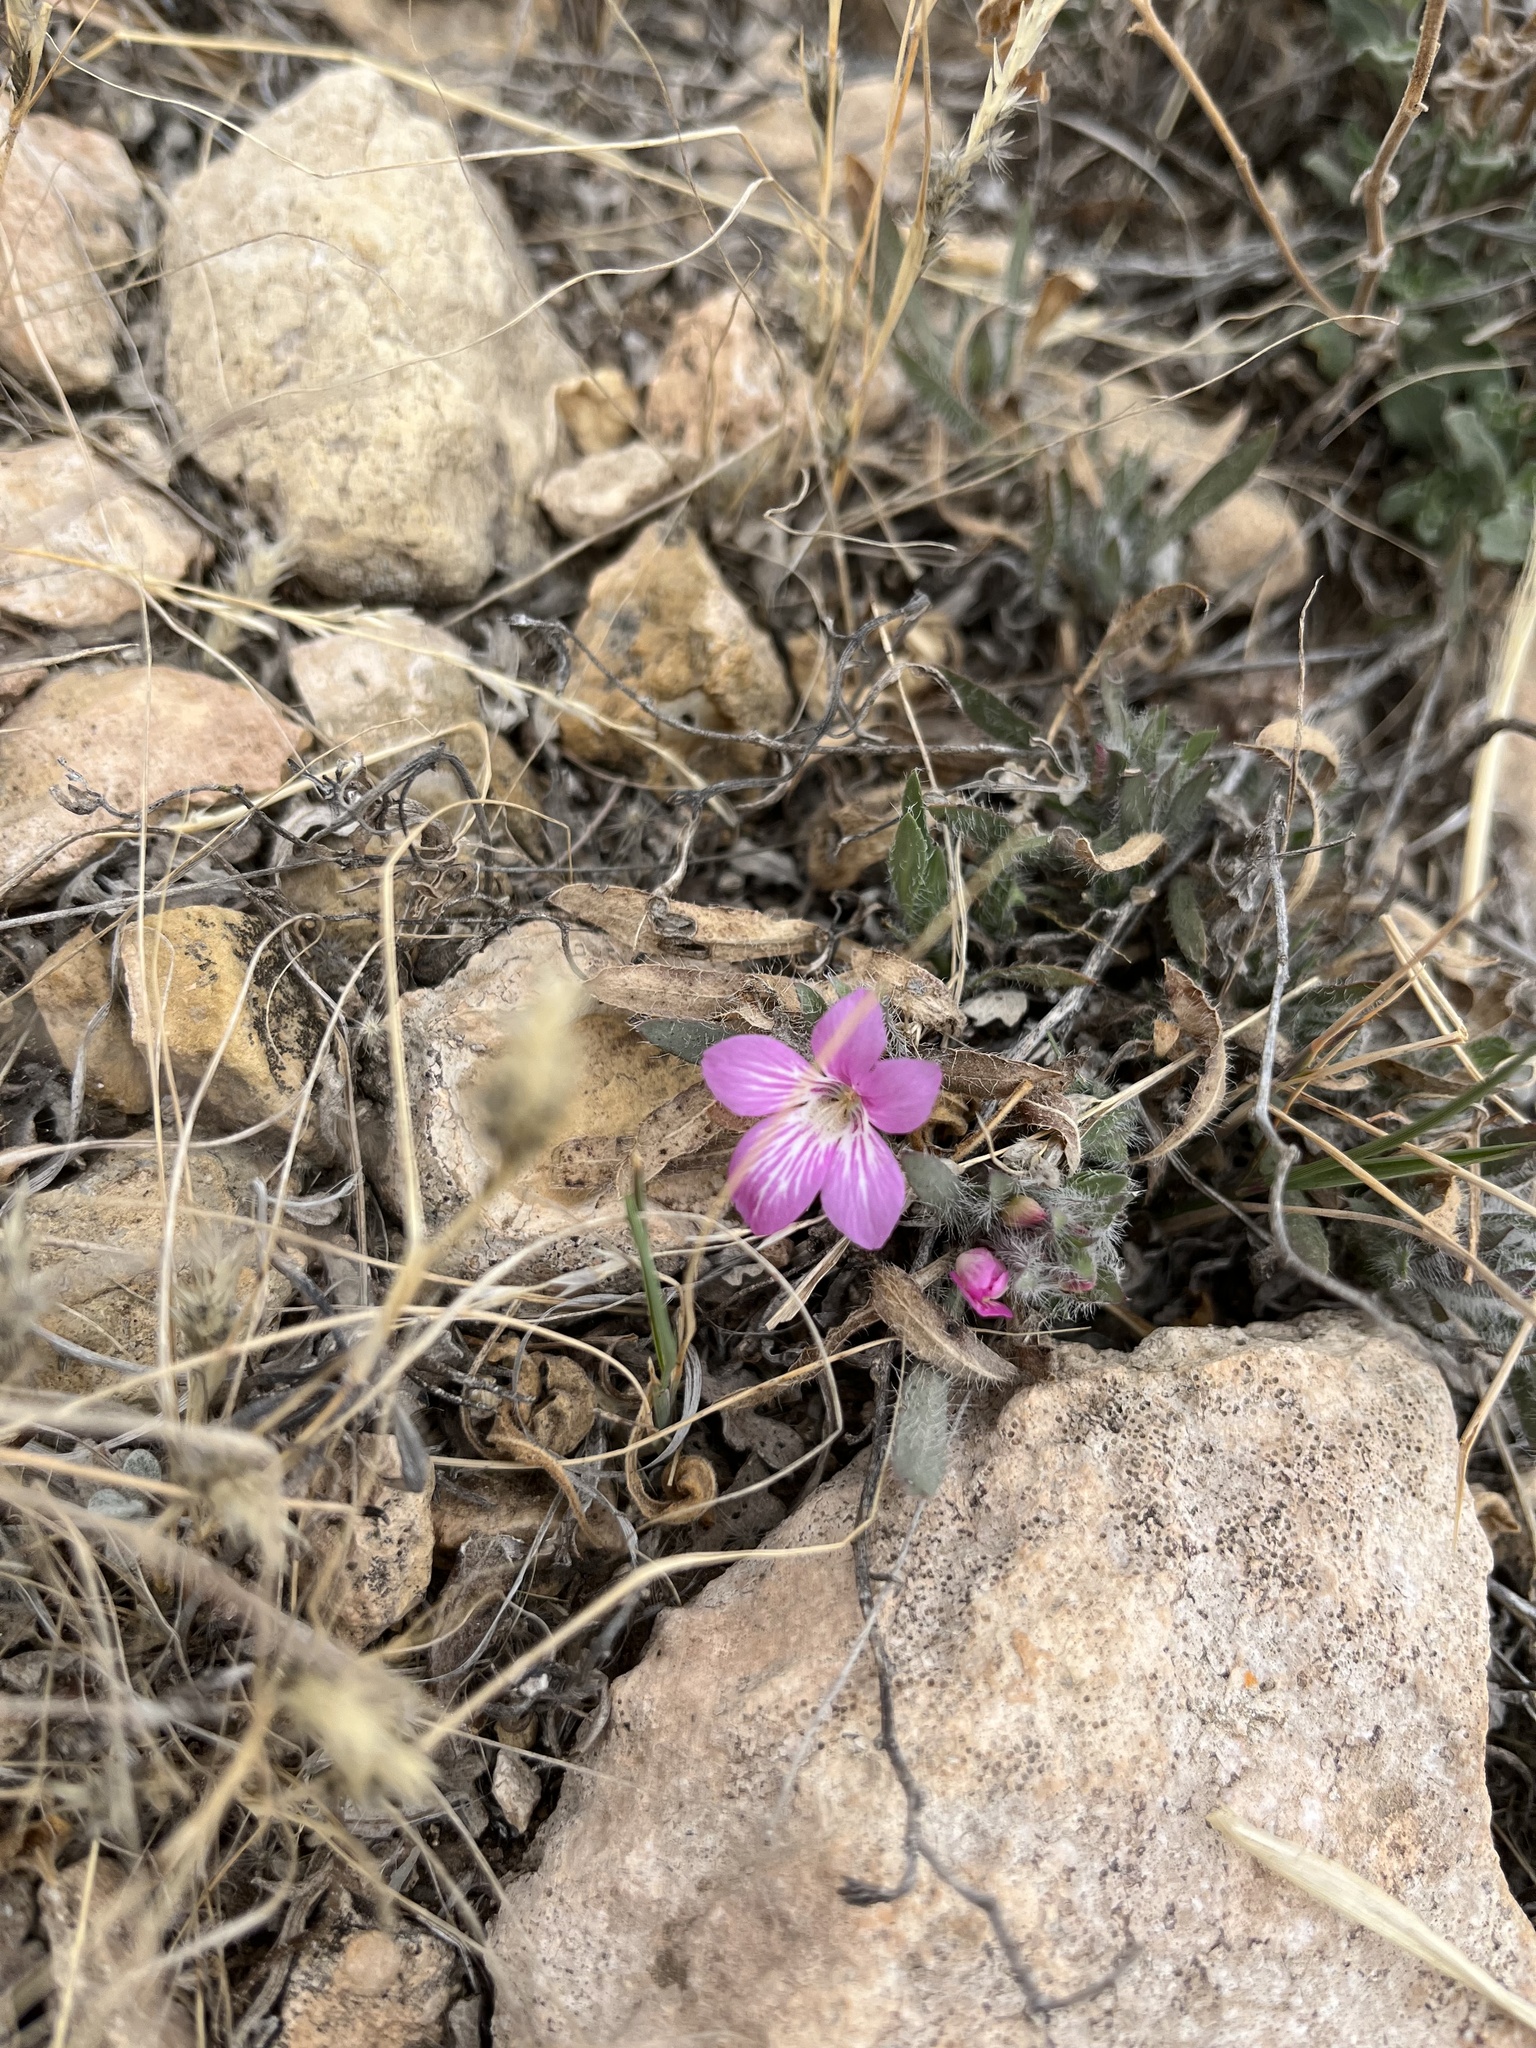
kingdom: Plantae
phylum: Tracheophyta
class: Magnoliopsida
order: Lamiales
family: Acanthaceae
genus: Stenandrium
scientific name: Stenandrium barbatum
